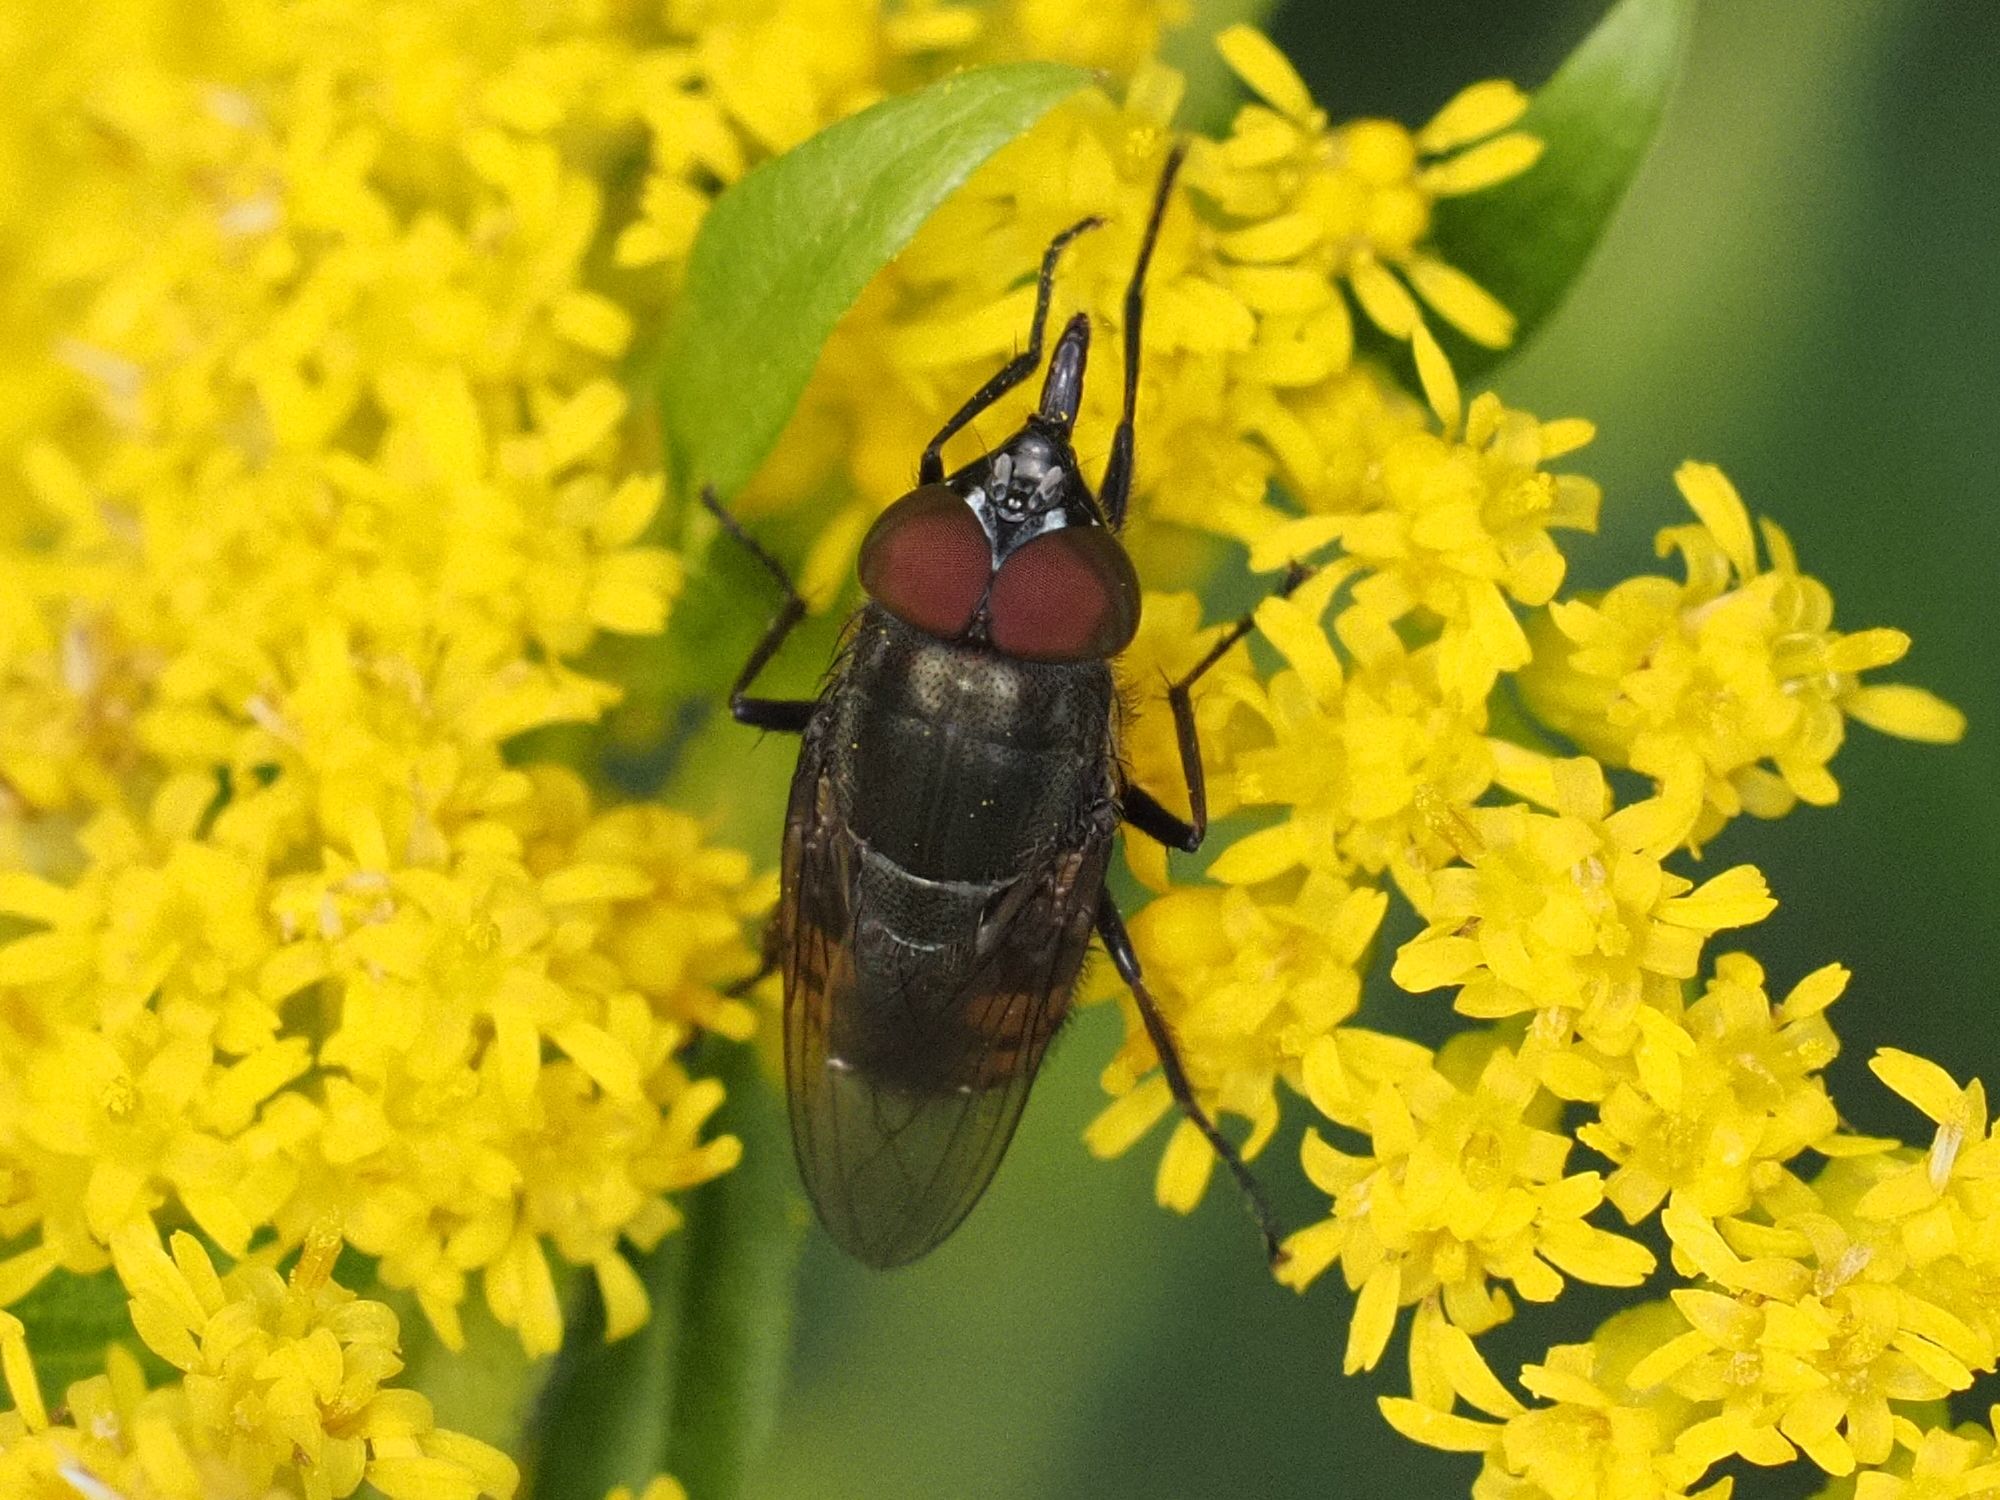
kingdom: Animalia
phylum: Arthropoda
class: Insecta
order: Diptera
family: Calliphoridae
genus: Stomorhina
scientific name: Stomorhina lunata
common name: Locust blowfly
